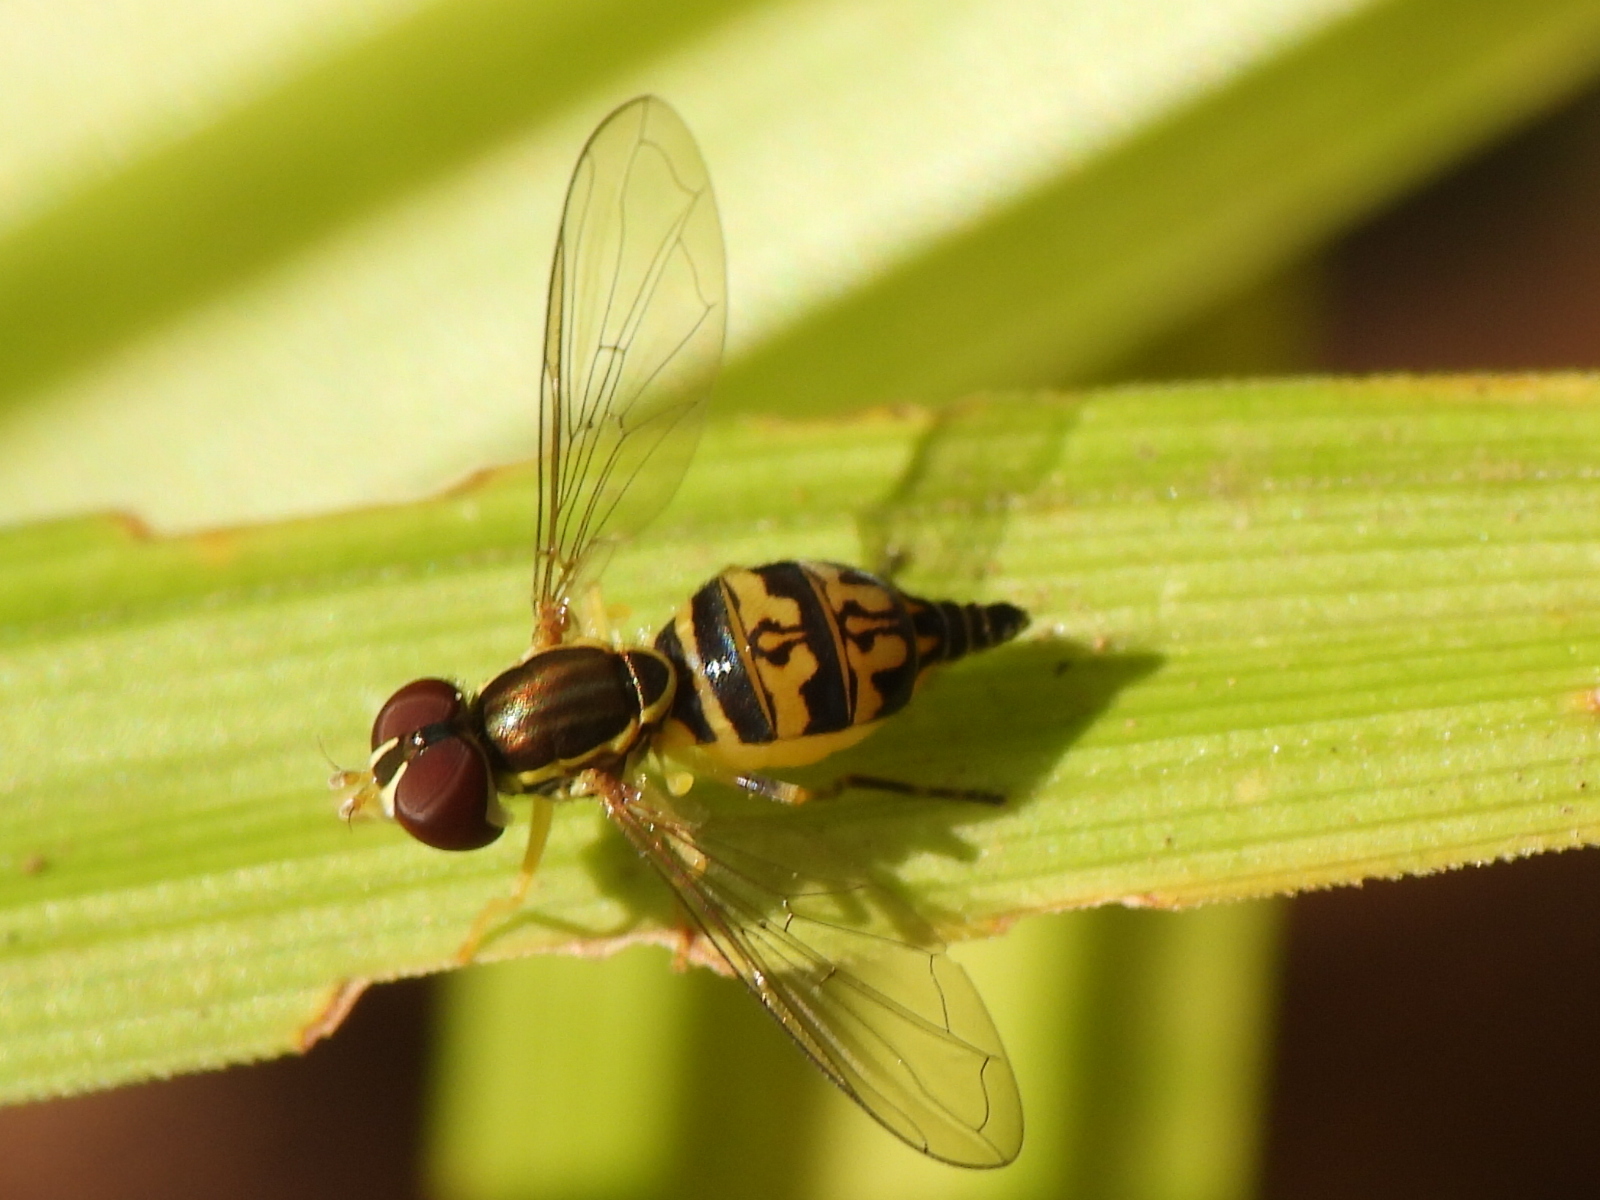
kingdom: Animalia
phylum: Arthropoda
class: Insecta
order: Diptera
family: Syrphidae
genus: Toxomerus
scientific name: Toxomerus geminatus
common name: Eastern calligrapher
